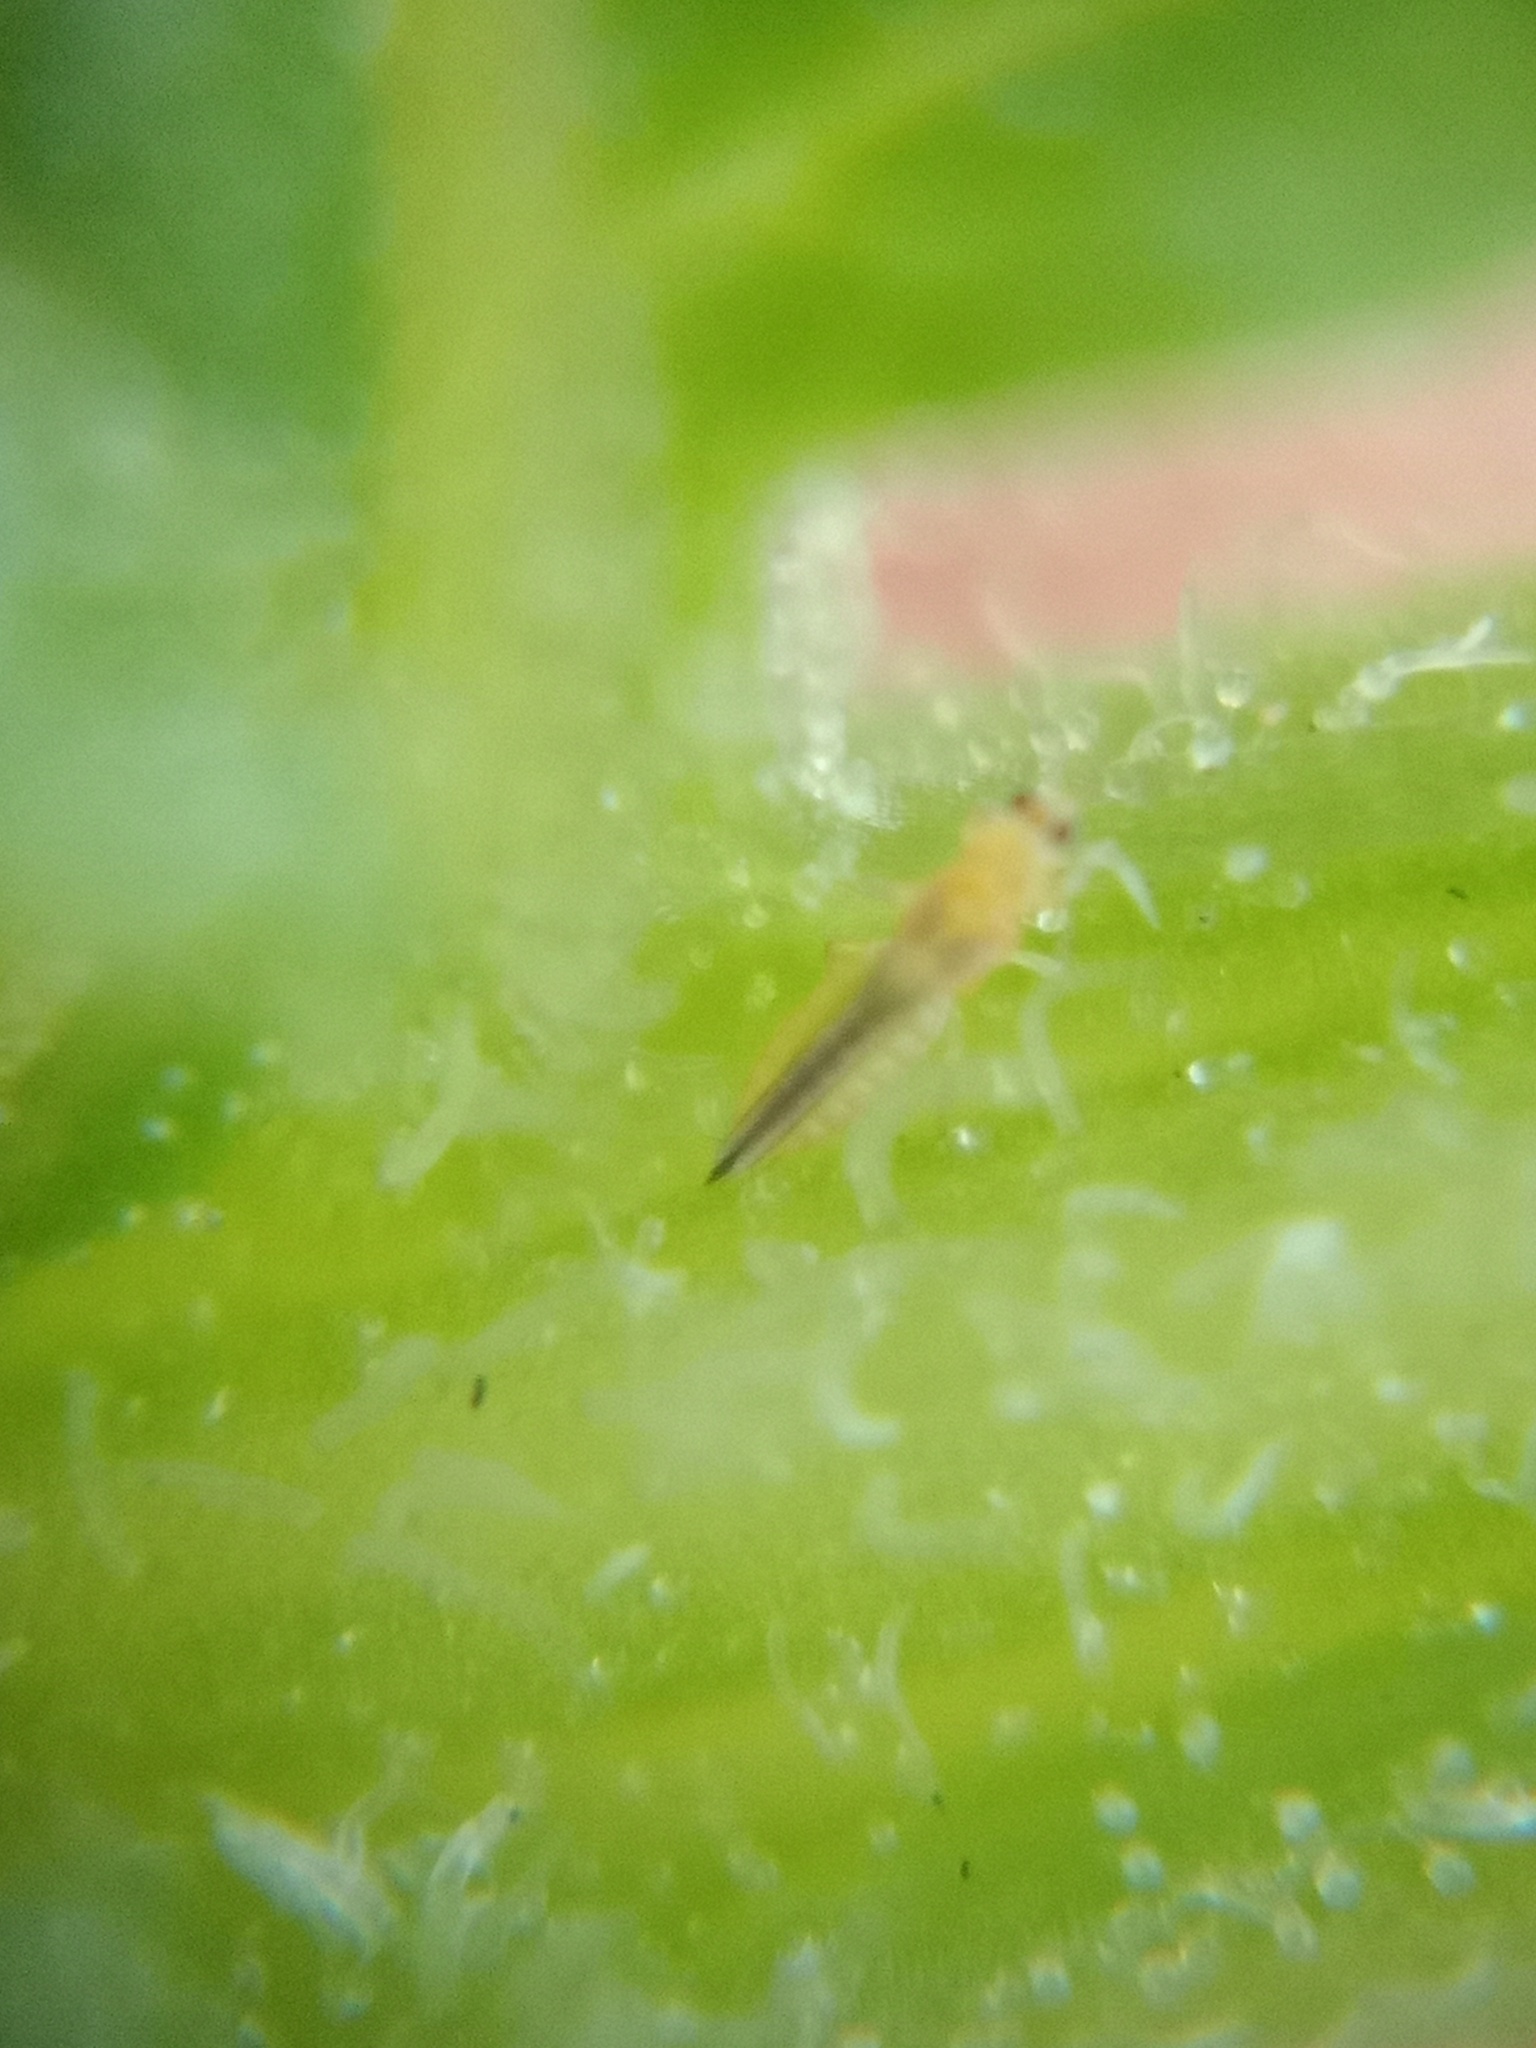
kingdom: Animalia
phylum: Arthropoda
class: Insecta
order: Thysanoptera
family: Thripidae
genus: Scirtothrips
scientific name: Scirtothrips dorsalis
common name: Thrips
